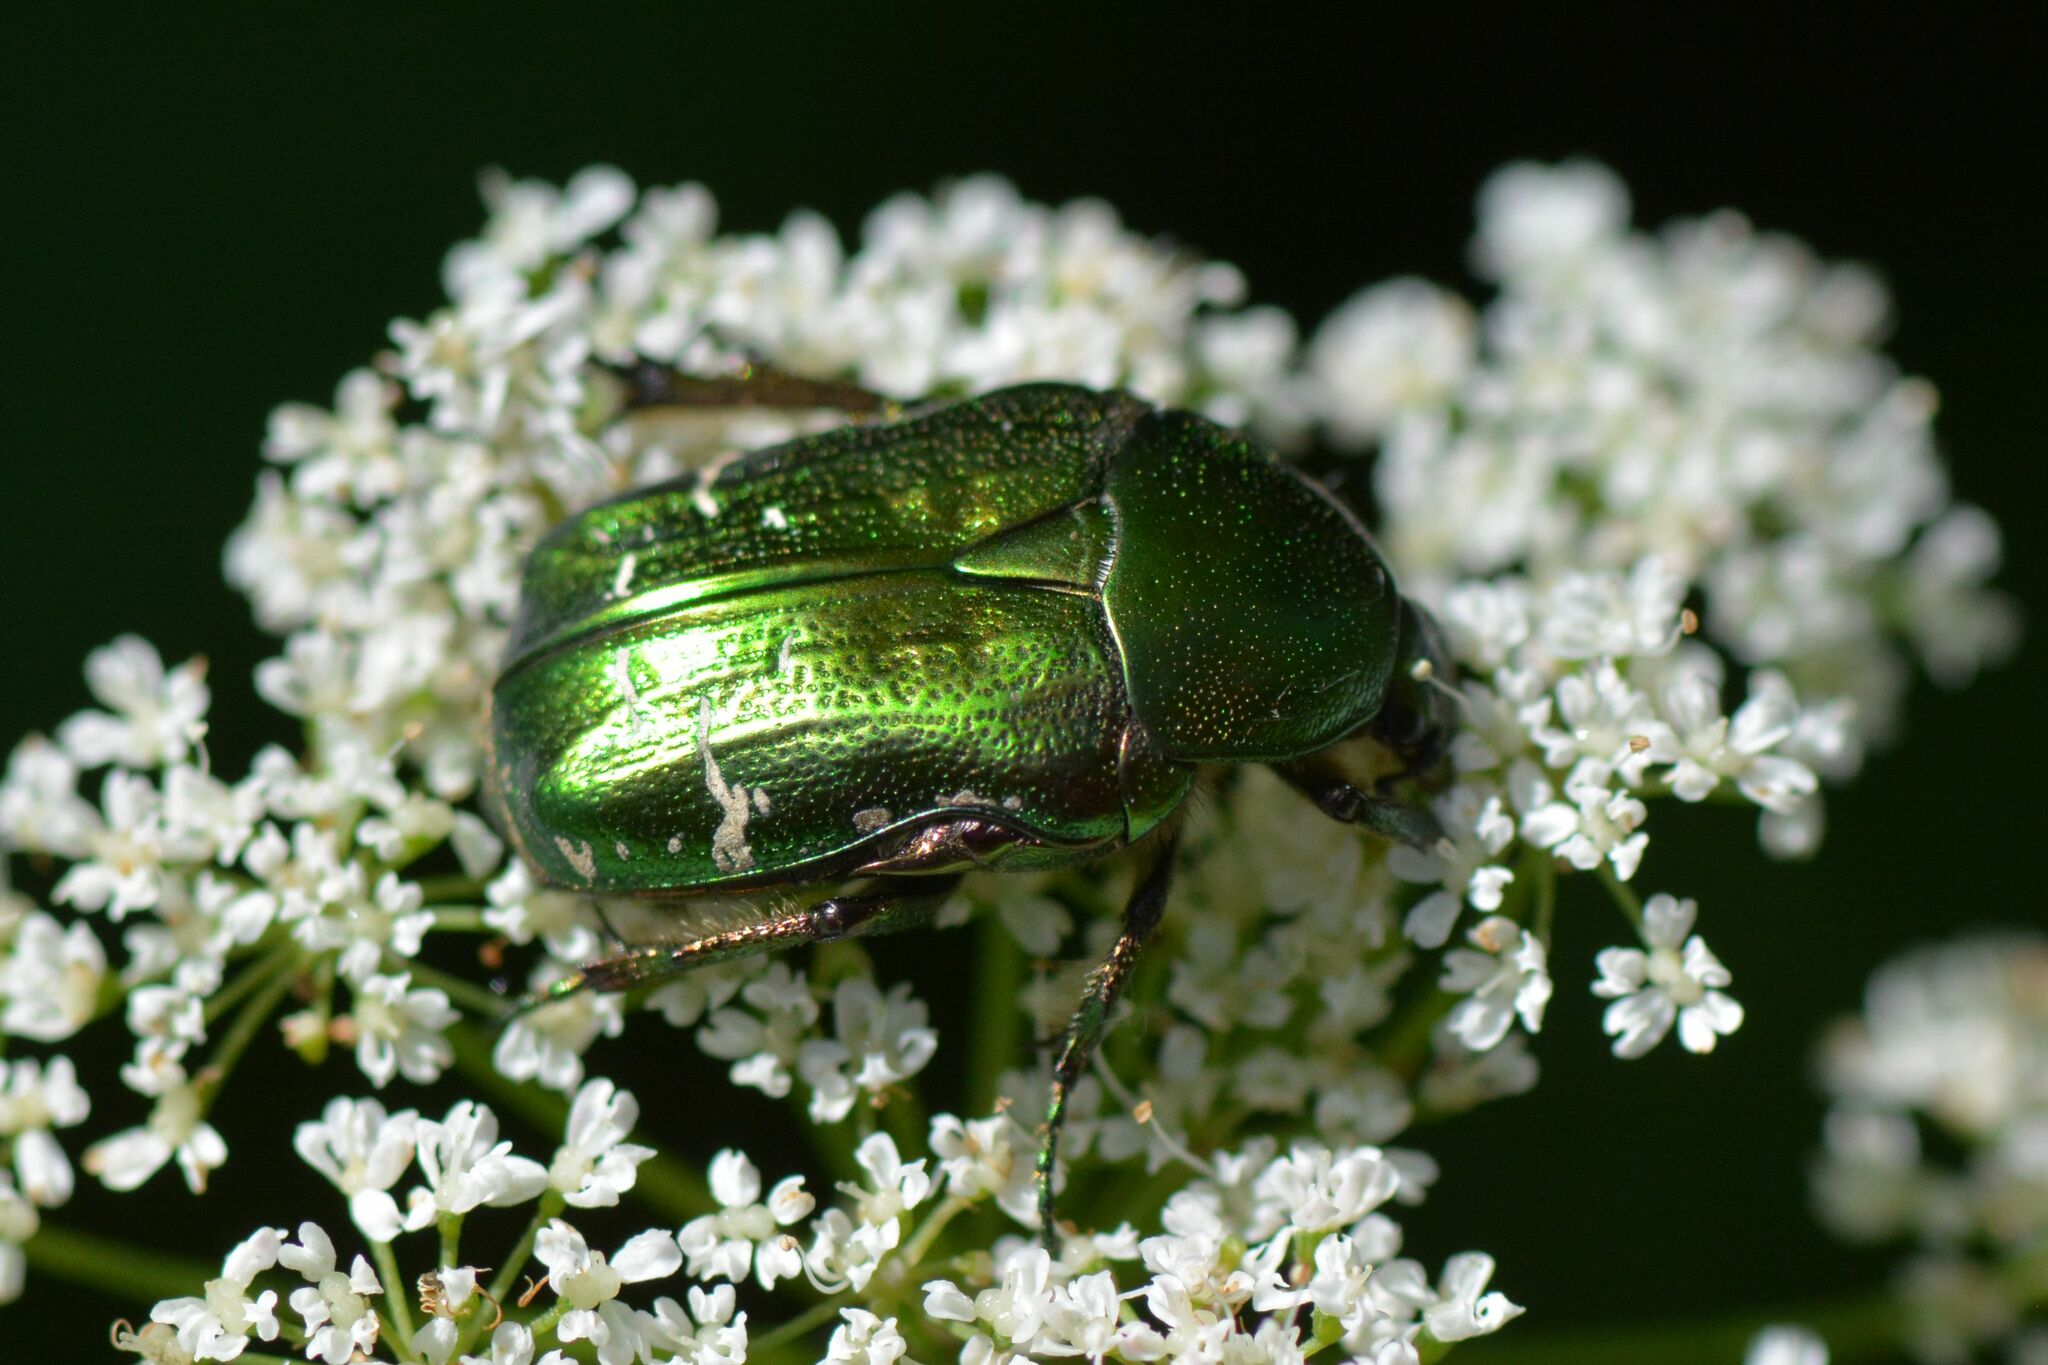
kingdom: Animalia
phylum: Arthropoda
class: Insecta
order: Coleoptera
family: Scarabaeidae
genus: Cetonia
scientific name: Cetonia aurata
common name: Rose chafer
